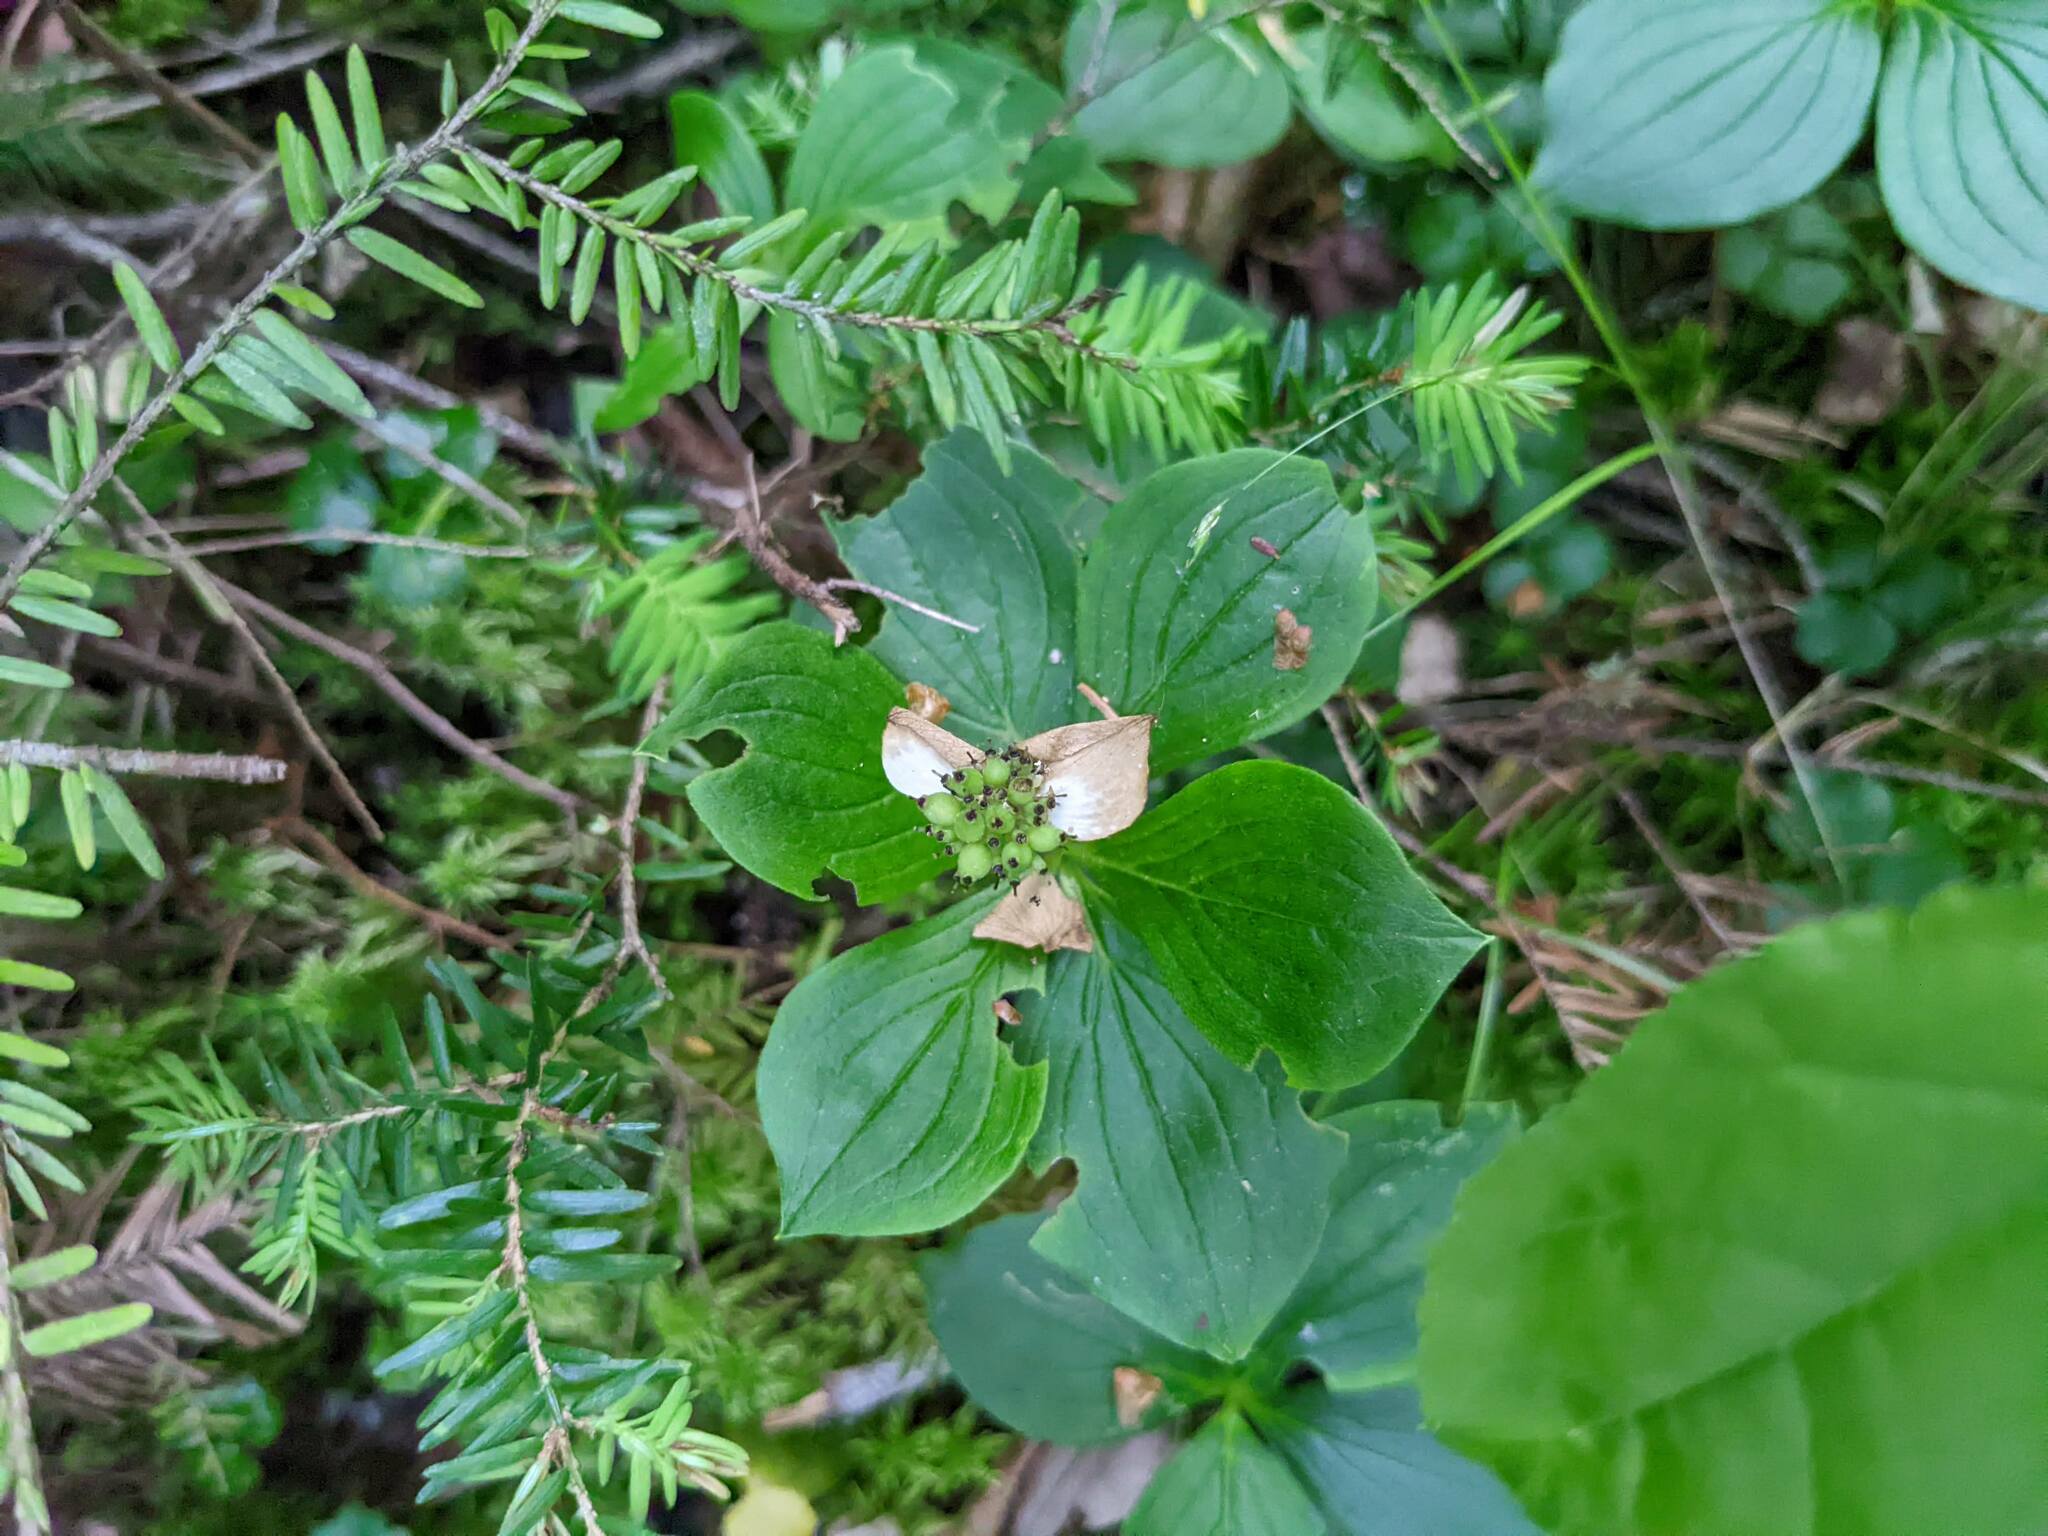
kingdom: Plantae
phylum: Tracheophyta
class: Magnoliopsida
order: Cornales
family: Cornaceae
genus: Cornus
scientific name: Cornus canadensis
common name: Creeping dogwood
